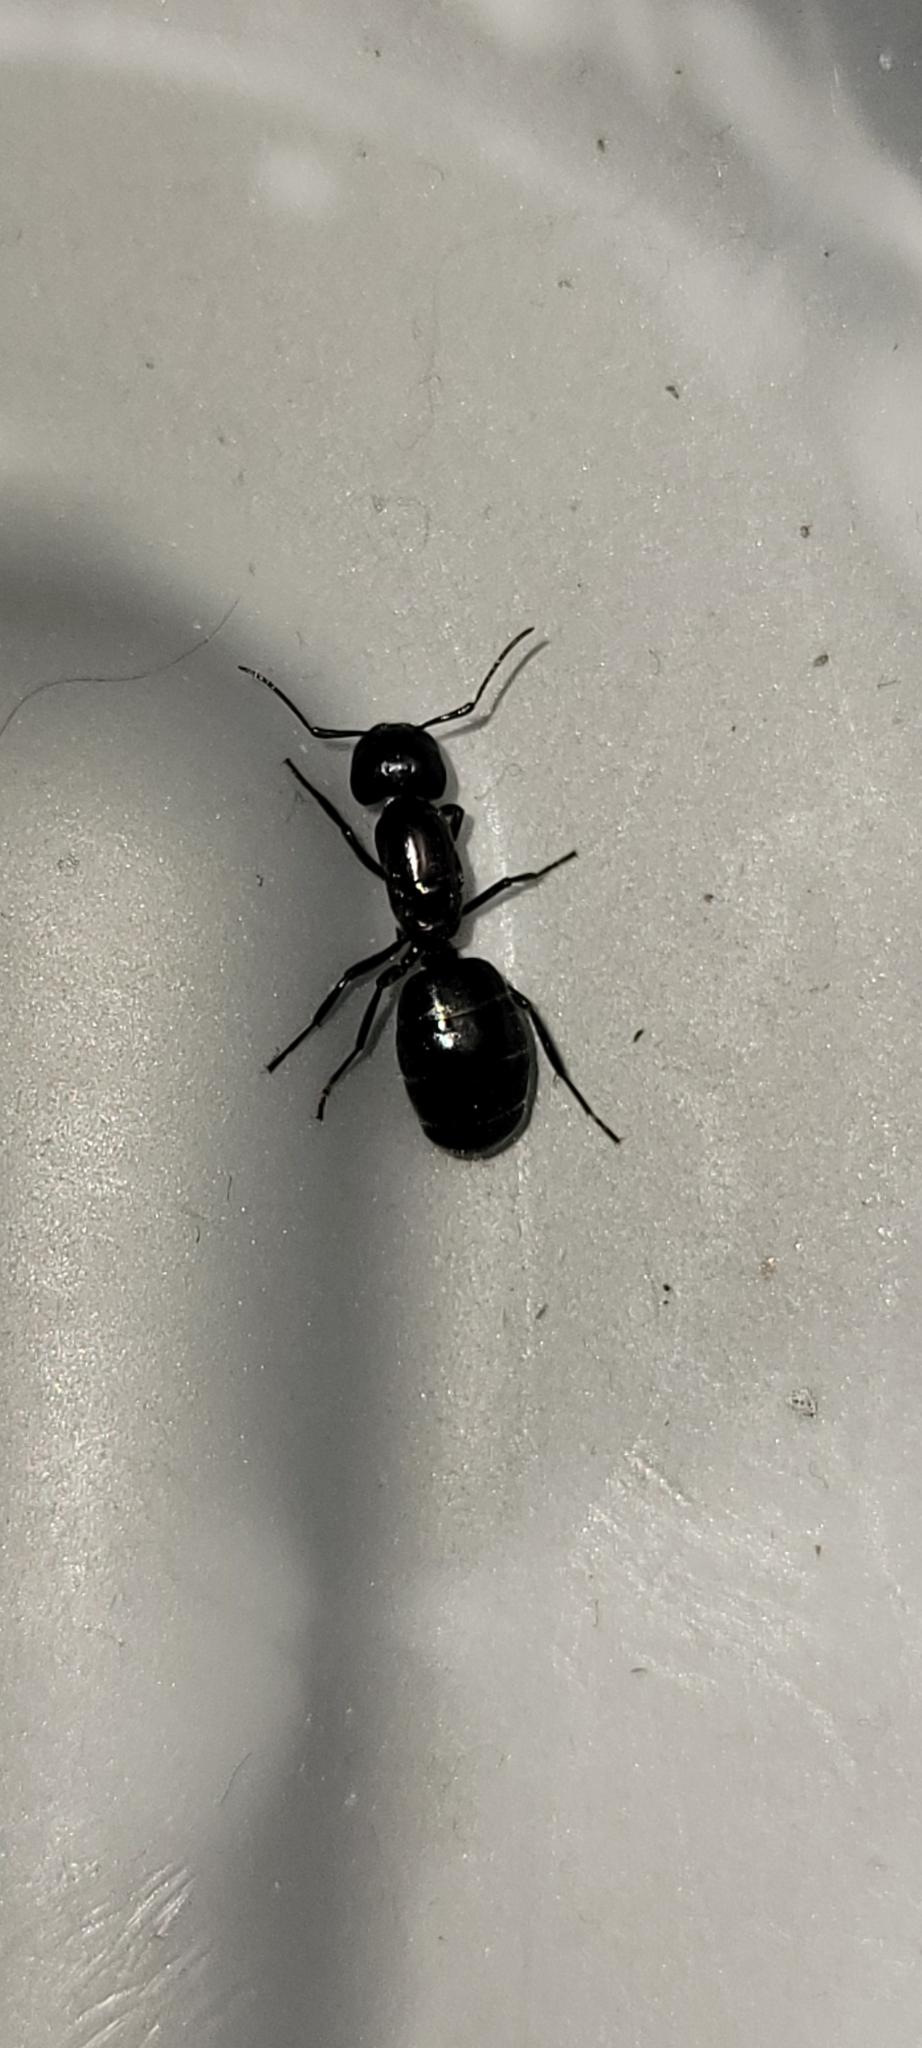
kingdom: Animalia
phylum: Arthropoda
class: Insecta
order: Hymenoptera
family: Formicidae
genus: Camponotus
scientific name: Camponotus novaeboracensis
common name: New york carpenter ant
